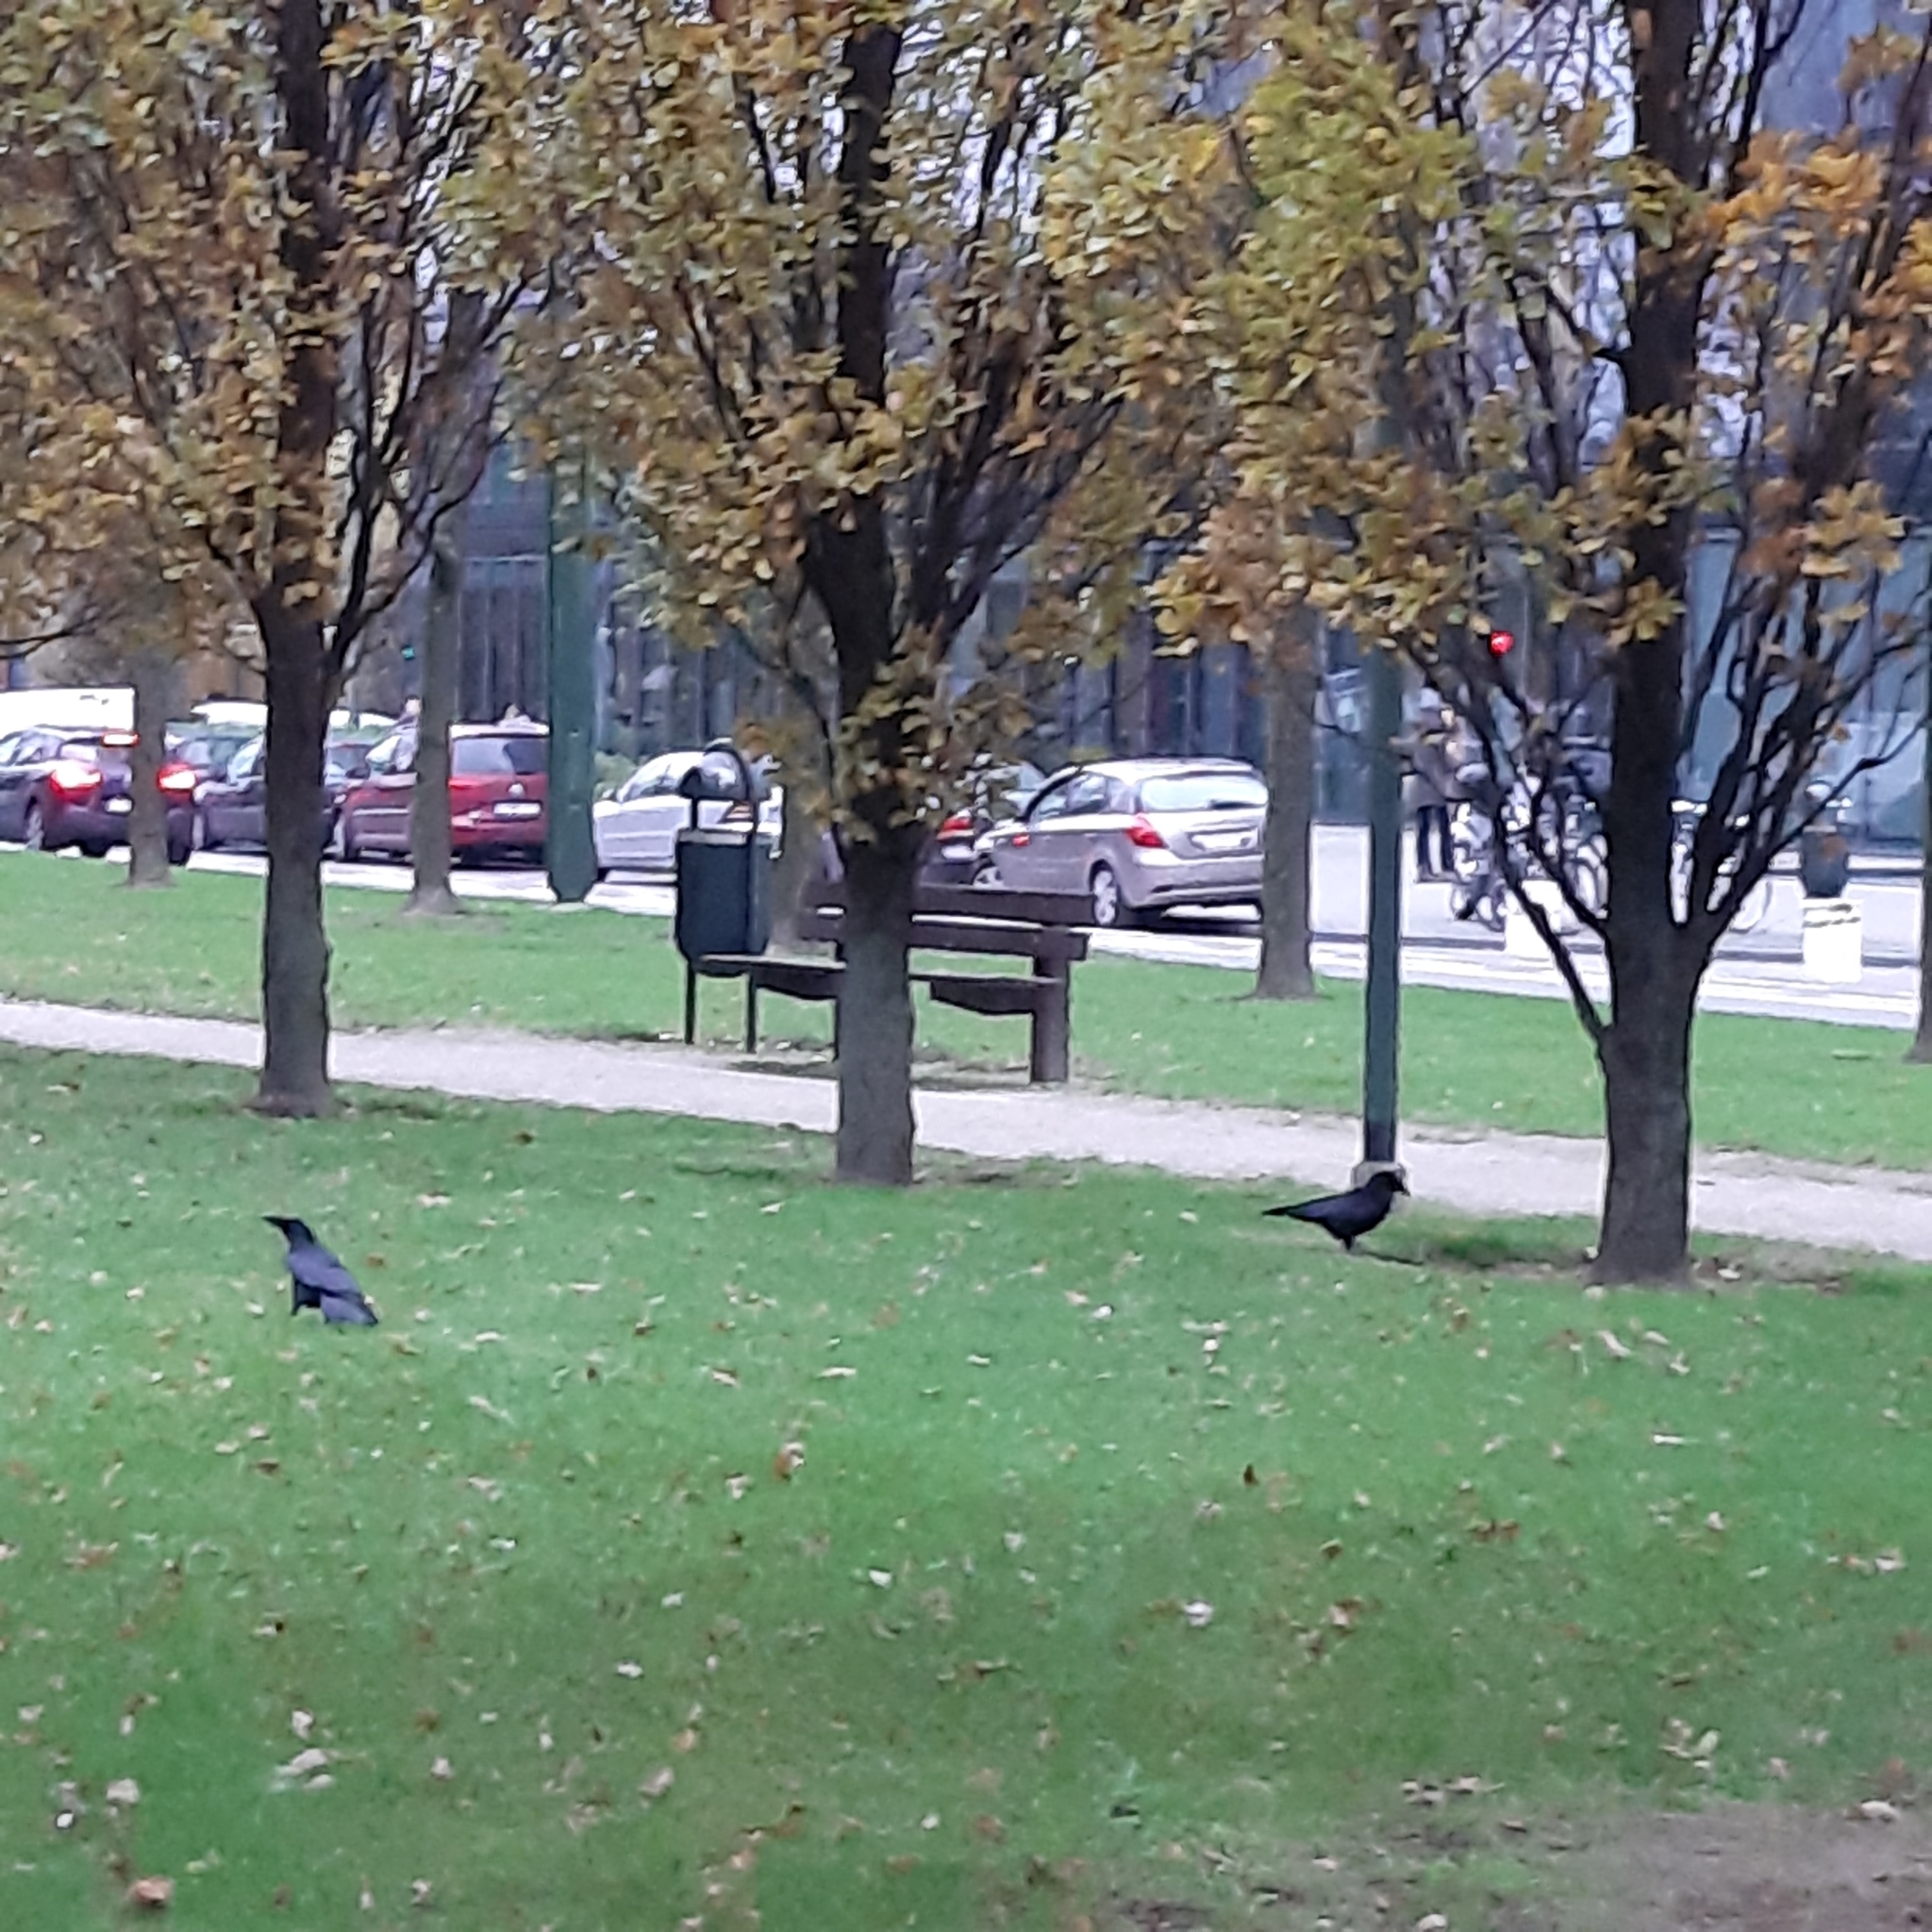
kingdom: Animalia
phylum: Chordata
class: Aves
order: Passeriformes
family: Corvidae
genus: Corvus
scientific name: Corvus corone
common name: Carrion crow
